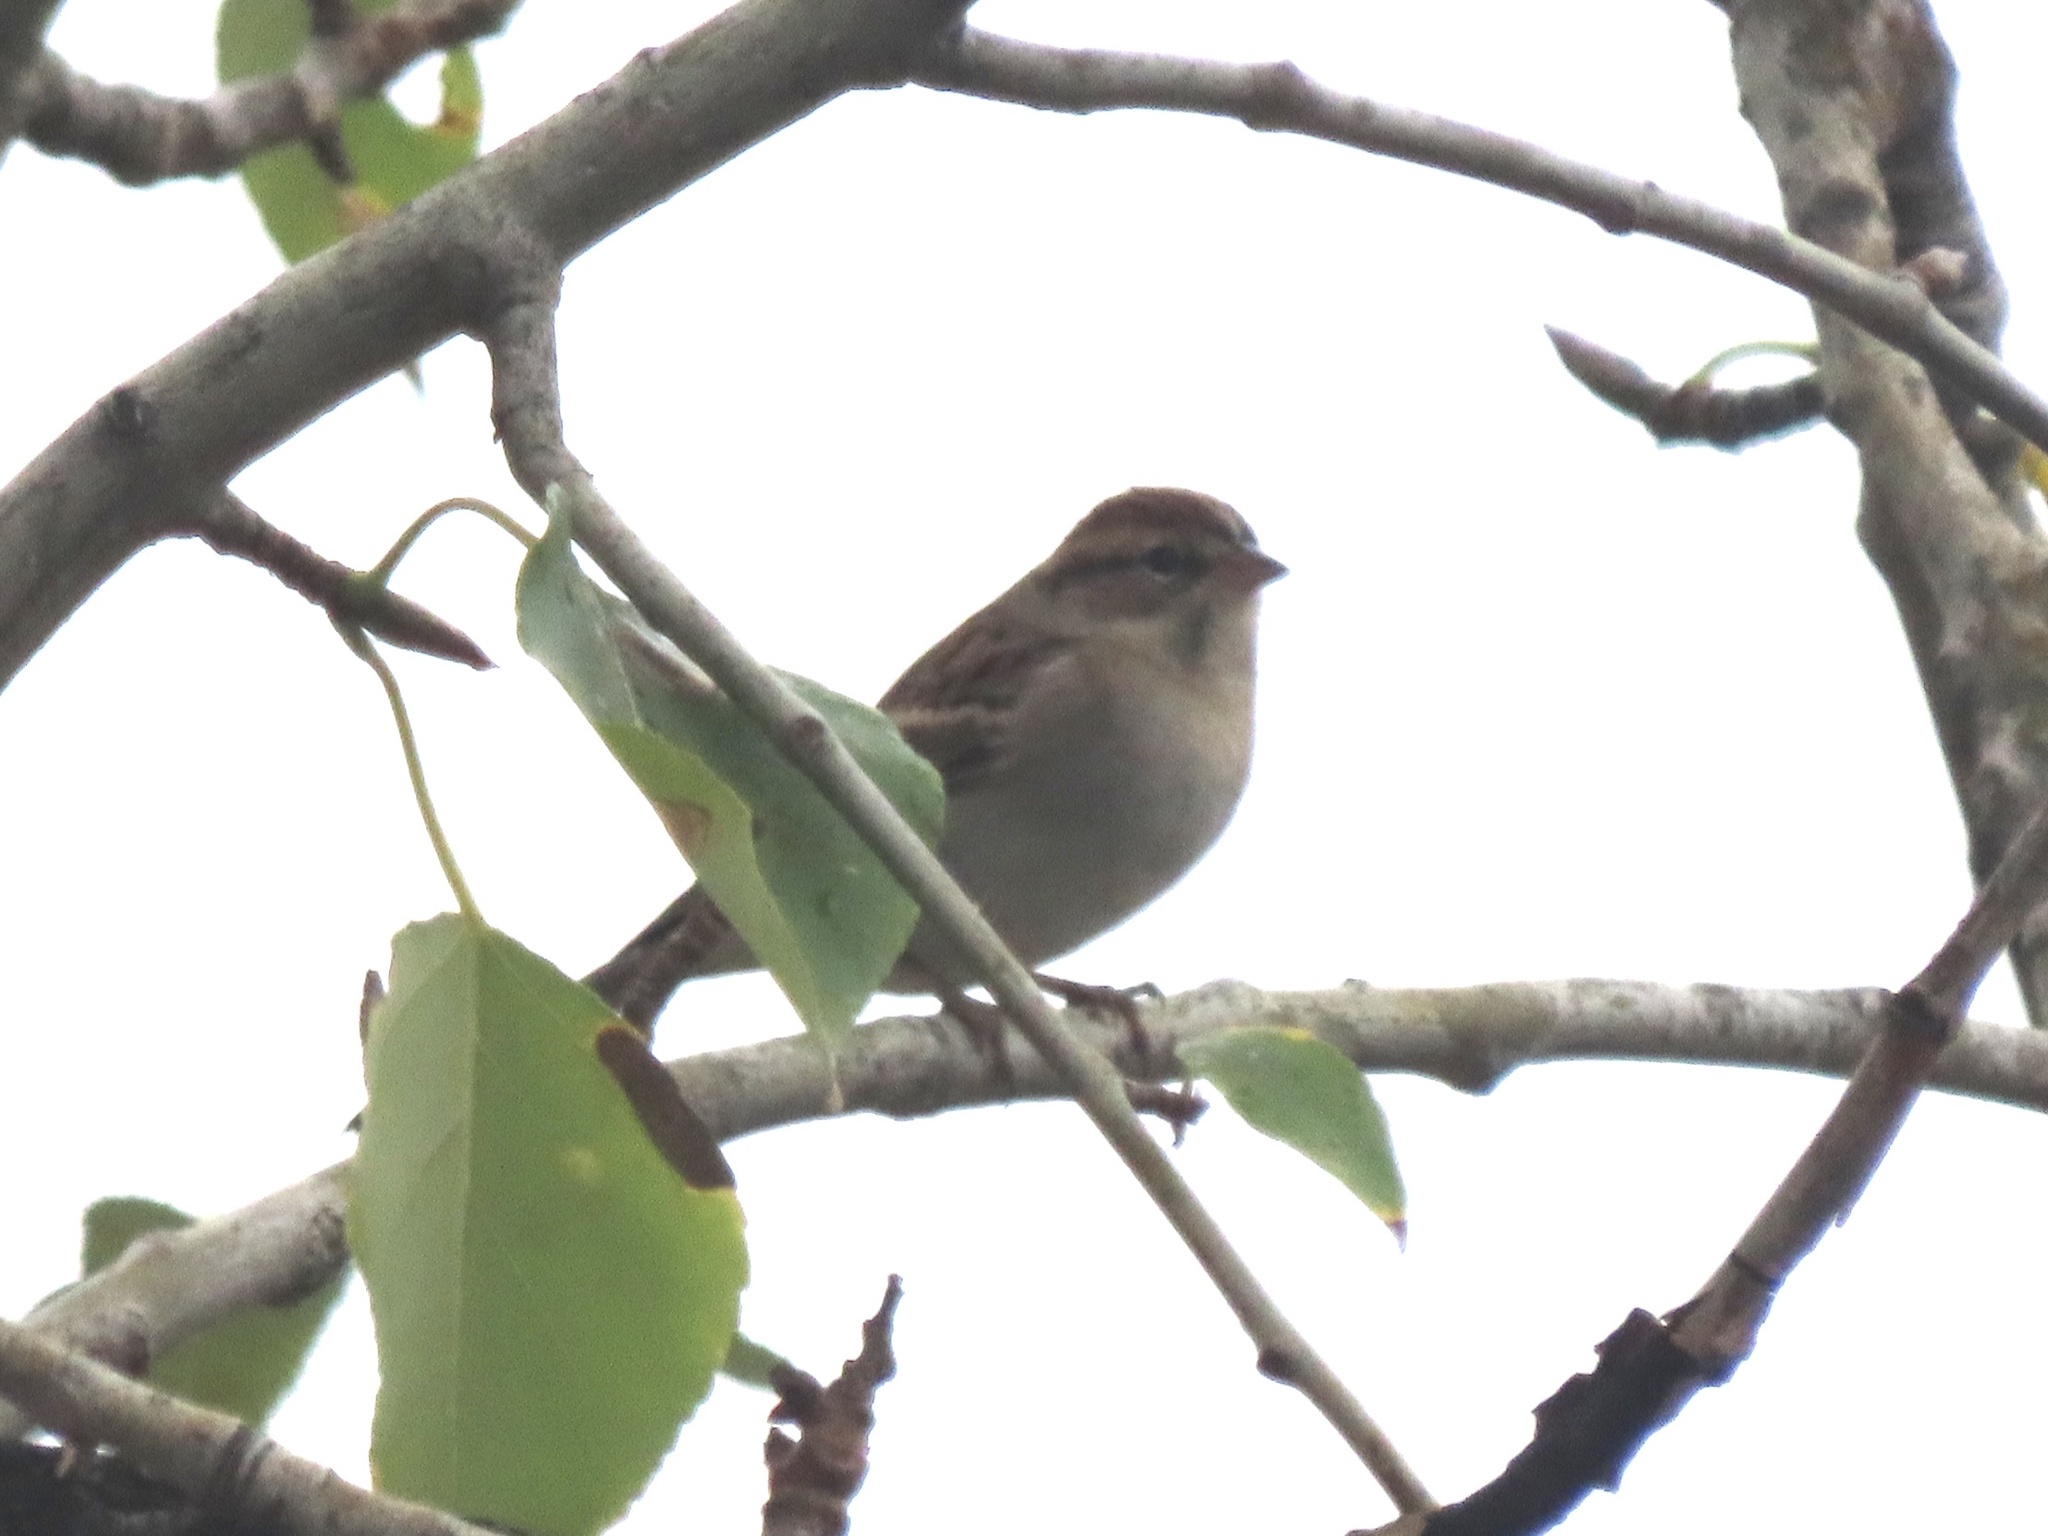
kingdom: Animalia
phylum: Chordata
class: Aves
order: Passeriformes
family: Passerellidae
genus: Spizella
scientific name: Spizella passerina
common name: Chipping sparrow
